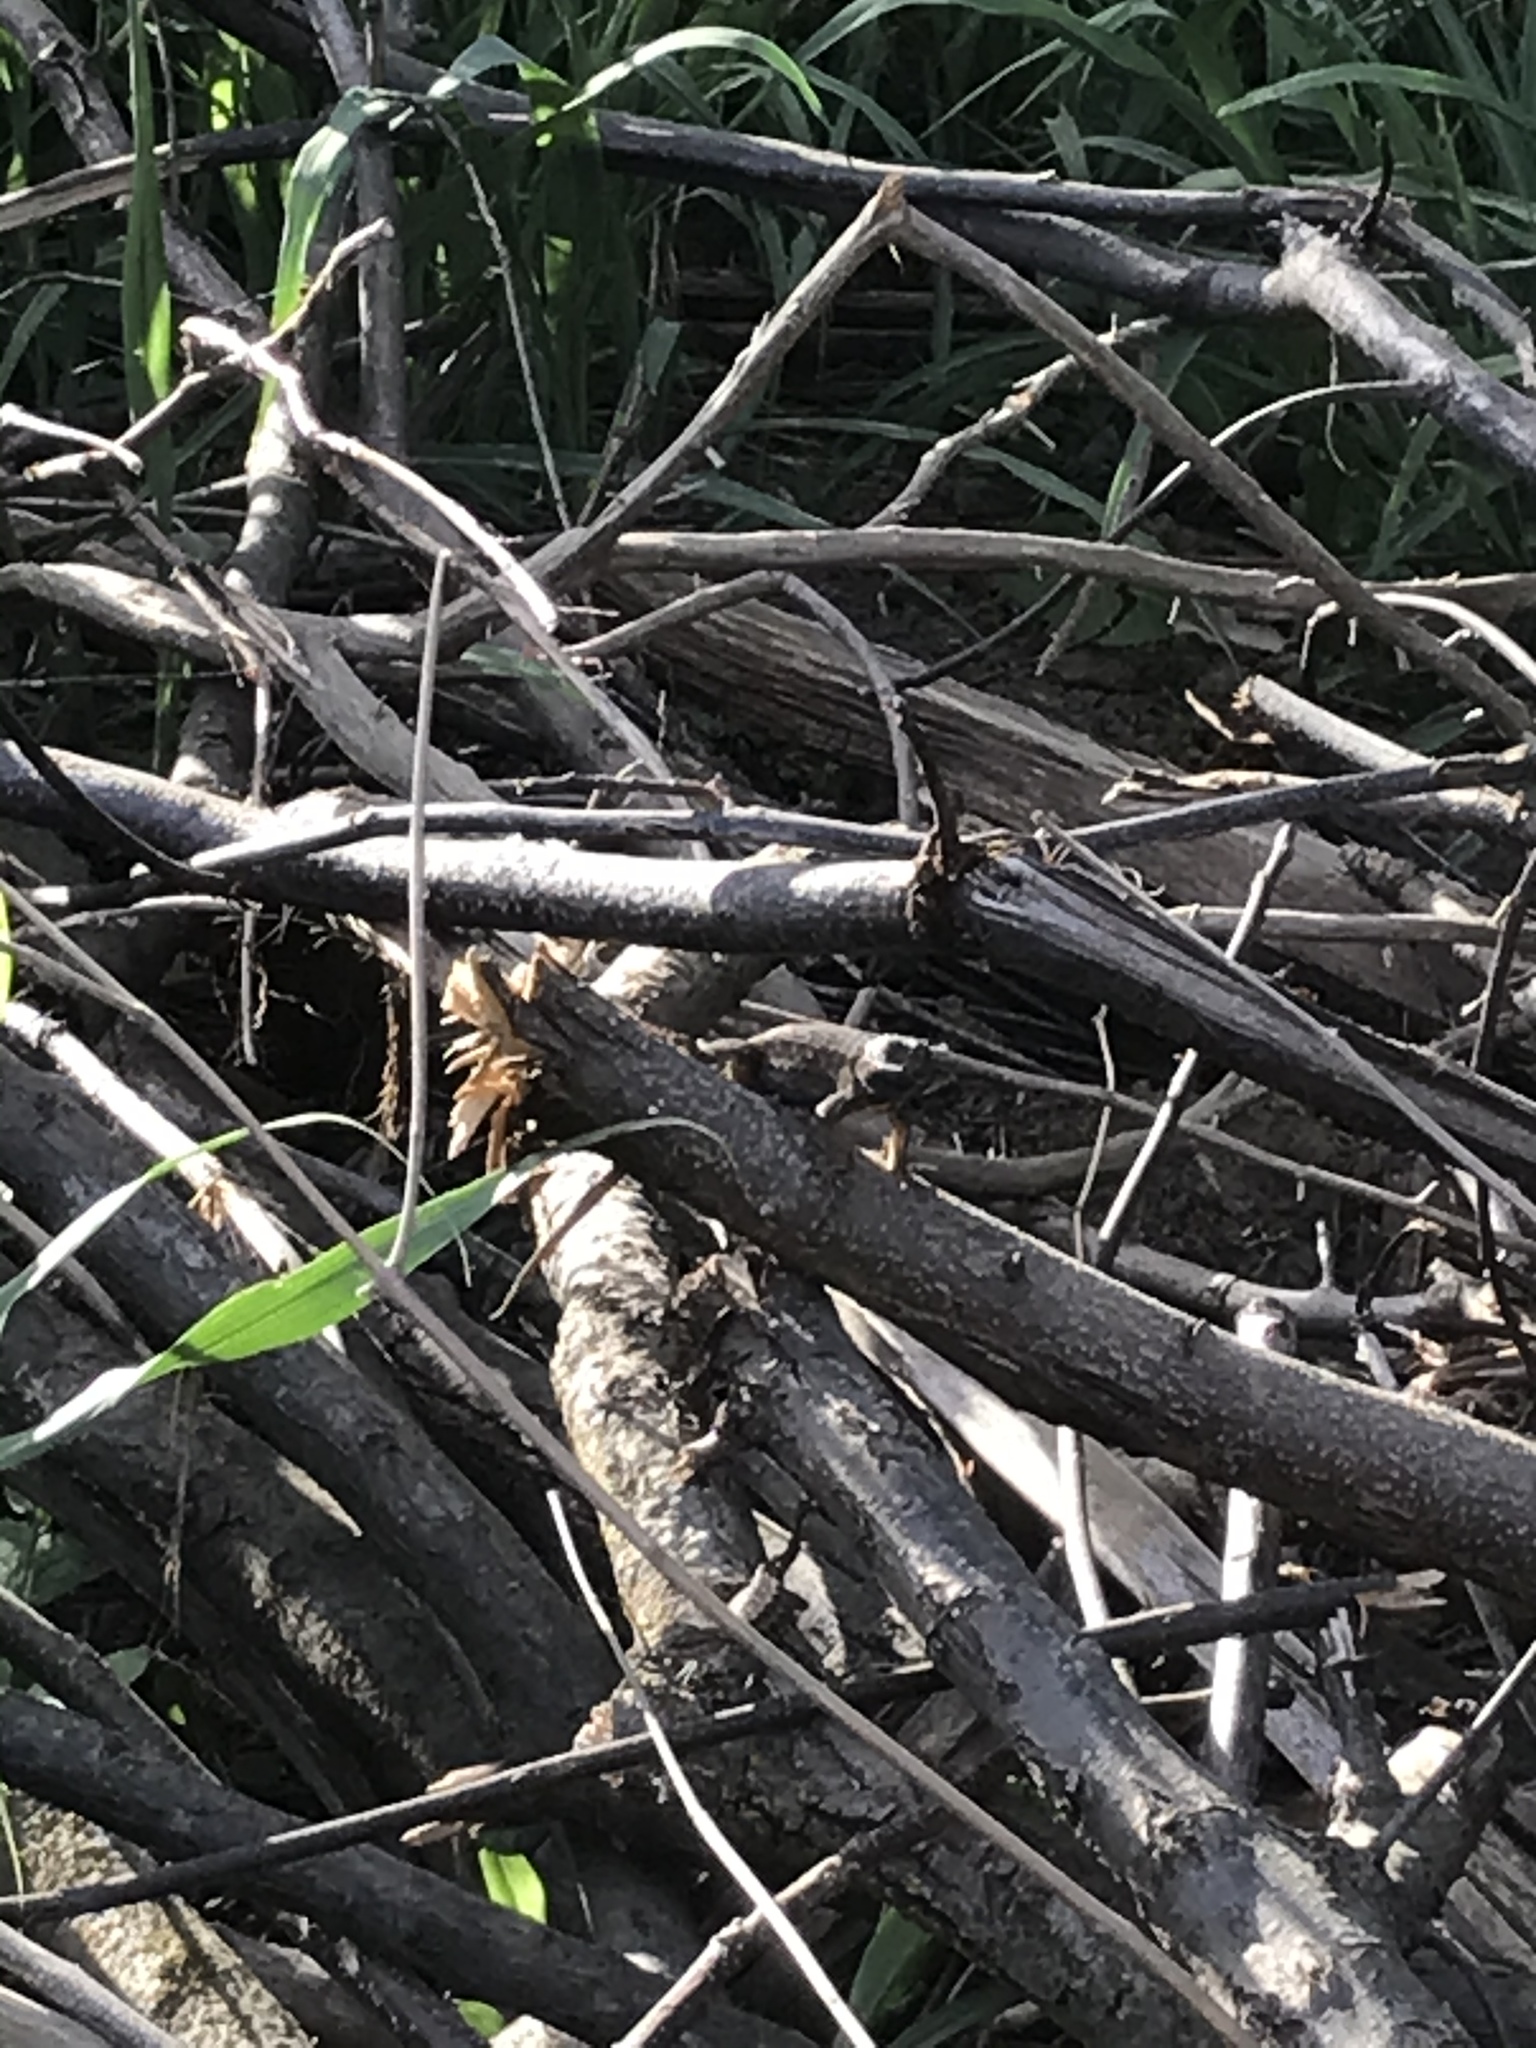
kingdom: Animalia
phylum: Chordata
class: Squamata
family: Phrynosomatidae
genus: Sceloporus
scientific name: Sceloporus occidentalis
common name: Western fence lizard
